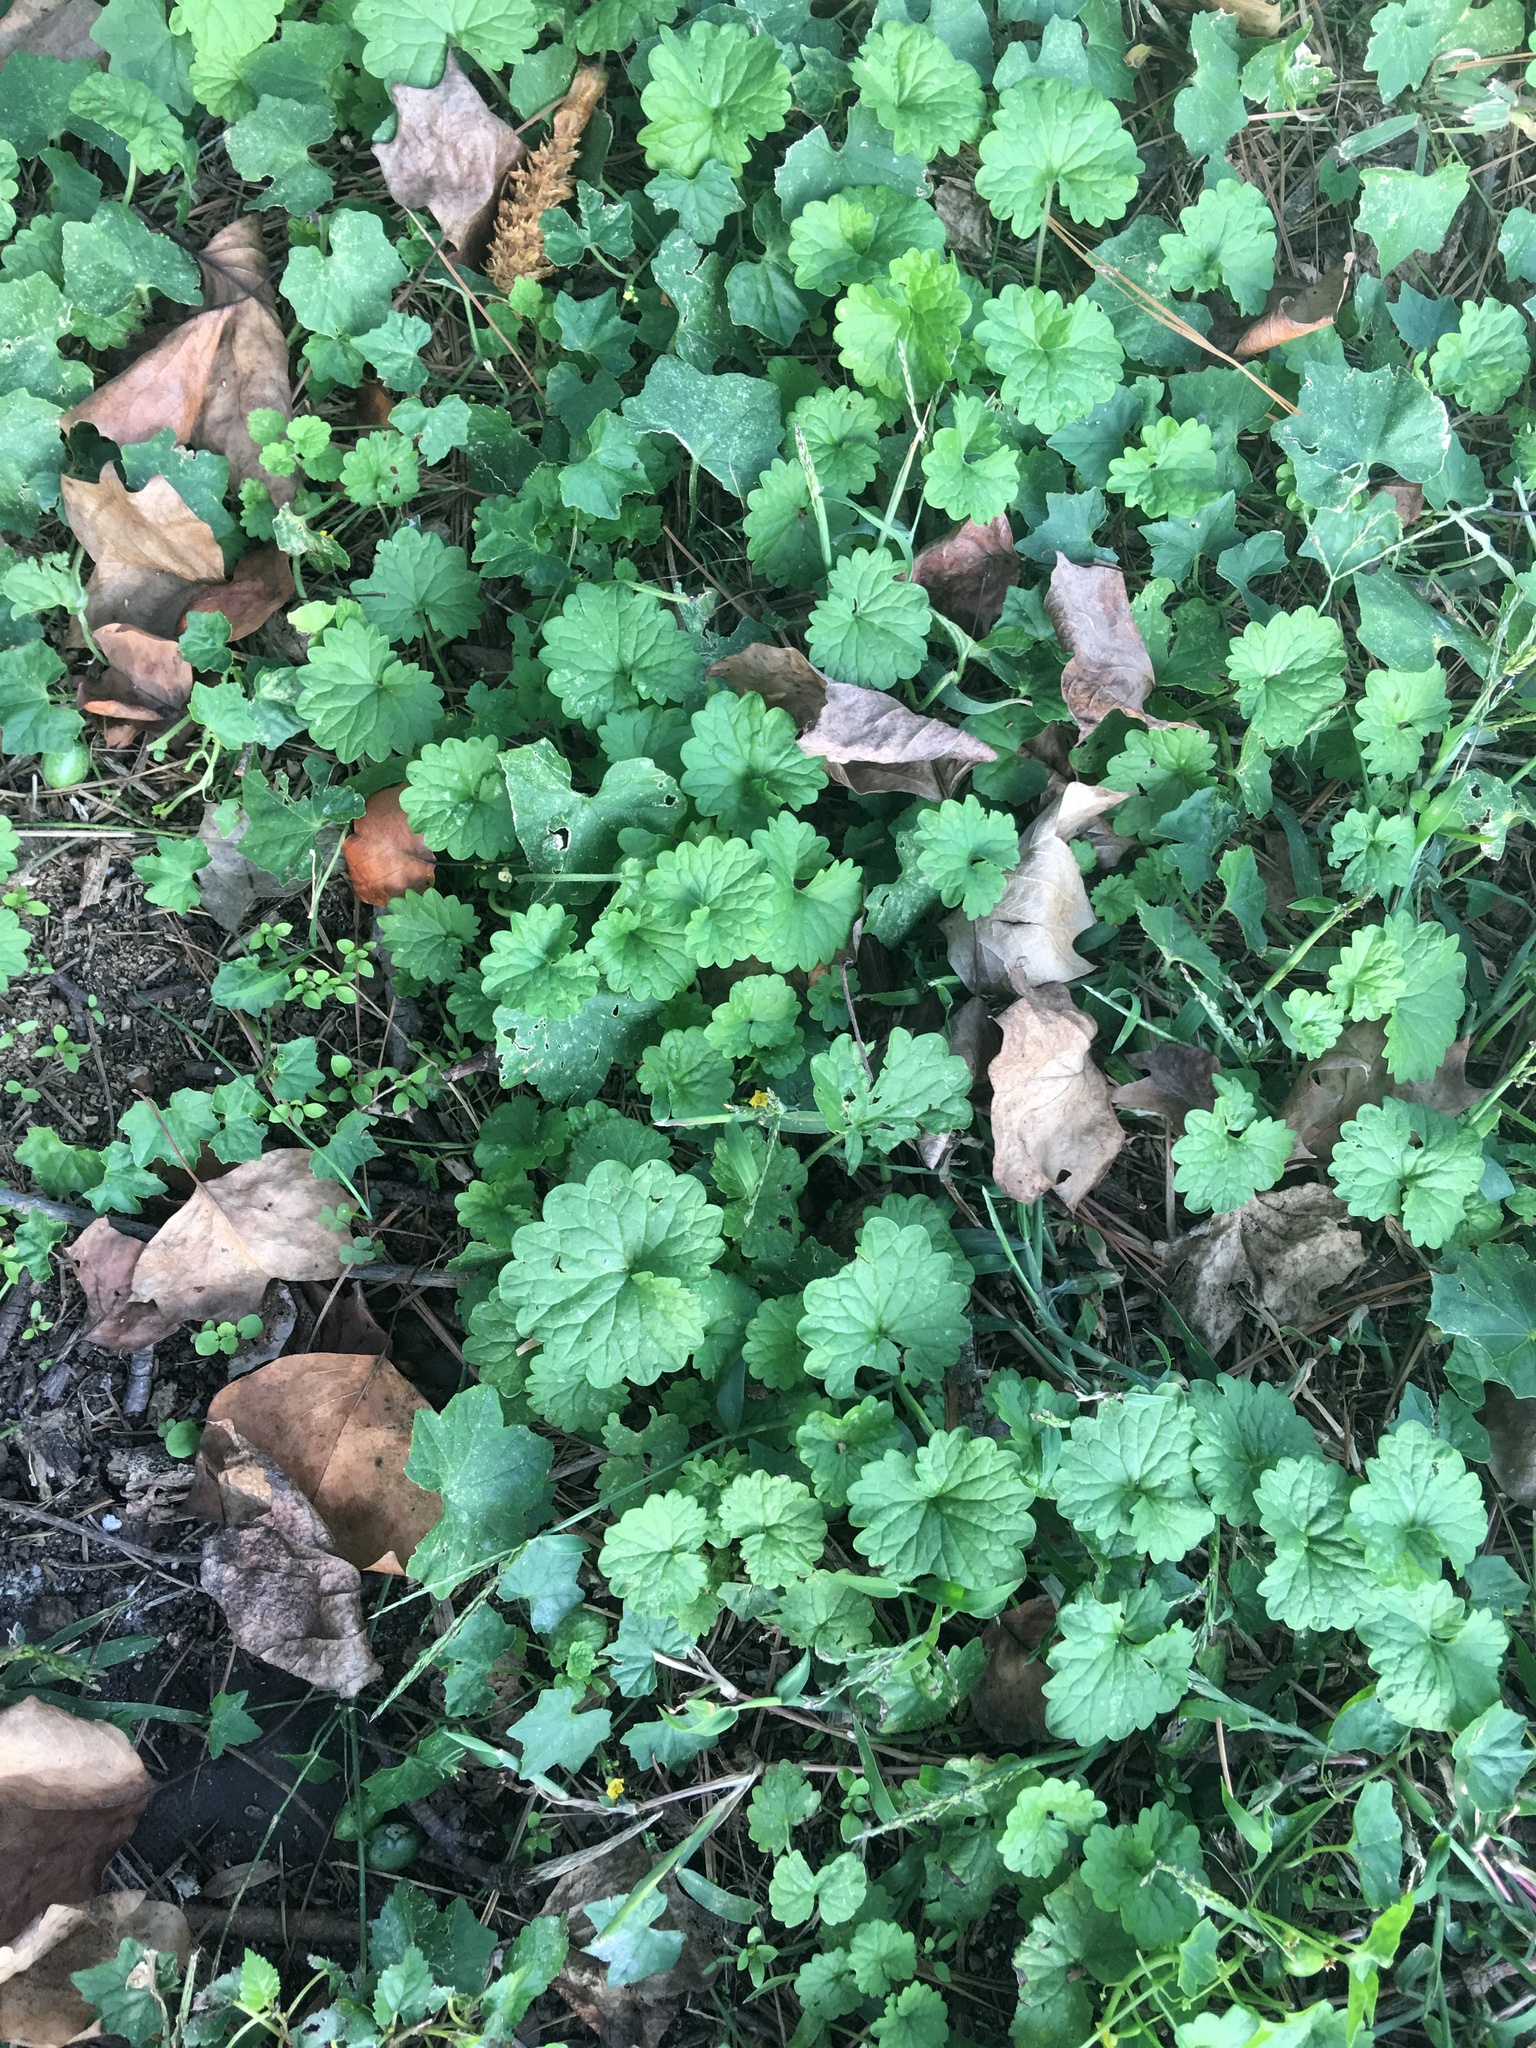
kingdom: Plantae
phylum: Tracheophyta
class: Magnoliopsida
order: Lamiales
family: Lamiaceae
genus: Glechoma
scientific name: Glechoma hederacea
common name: Ground ivy
